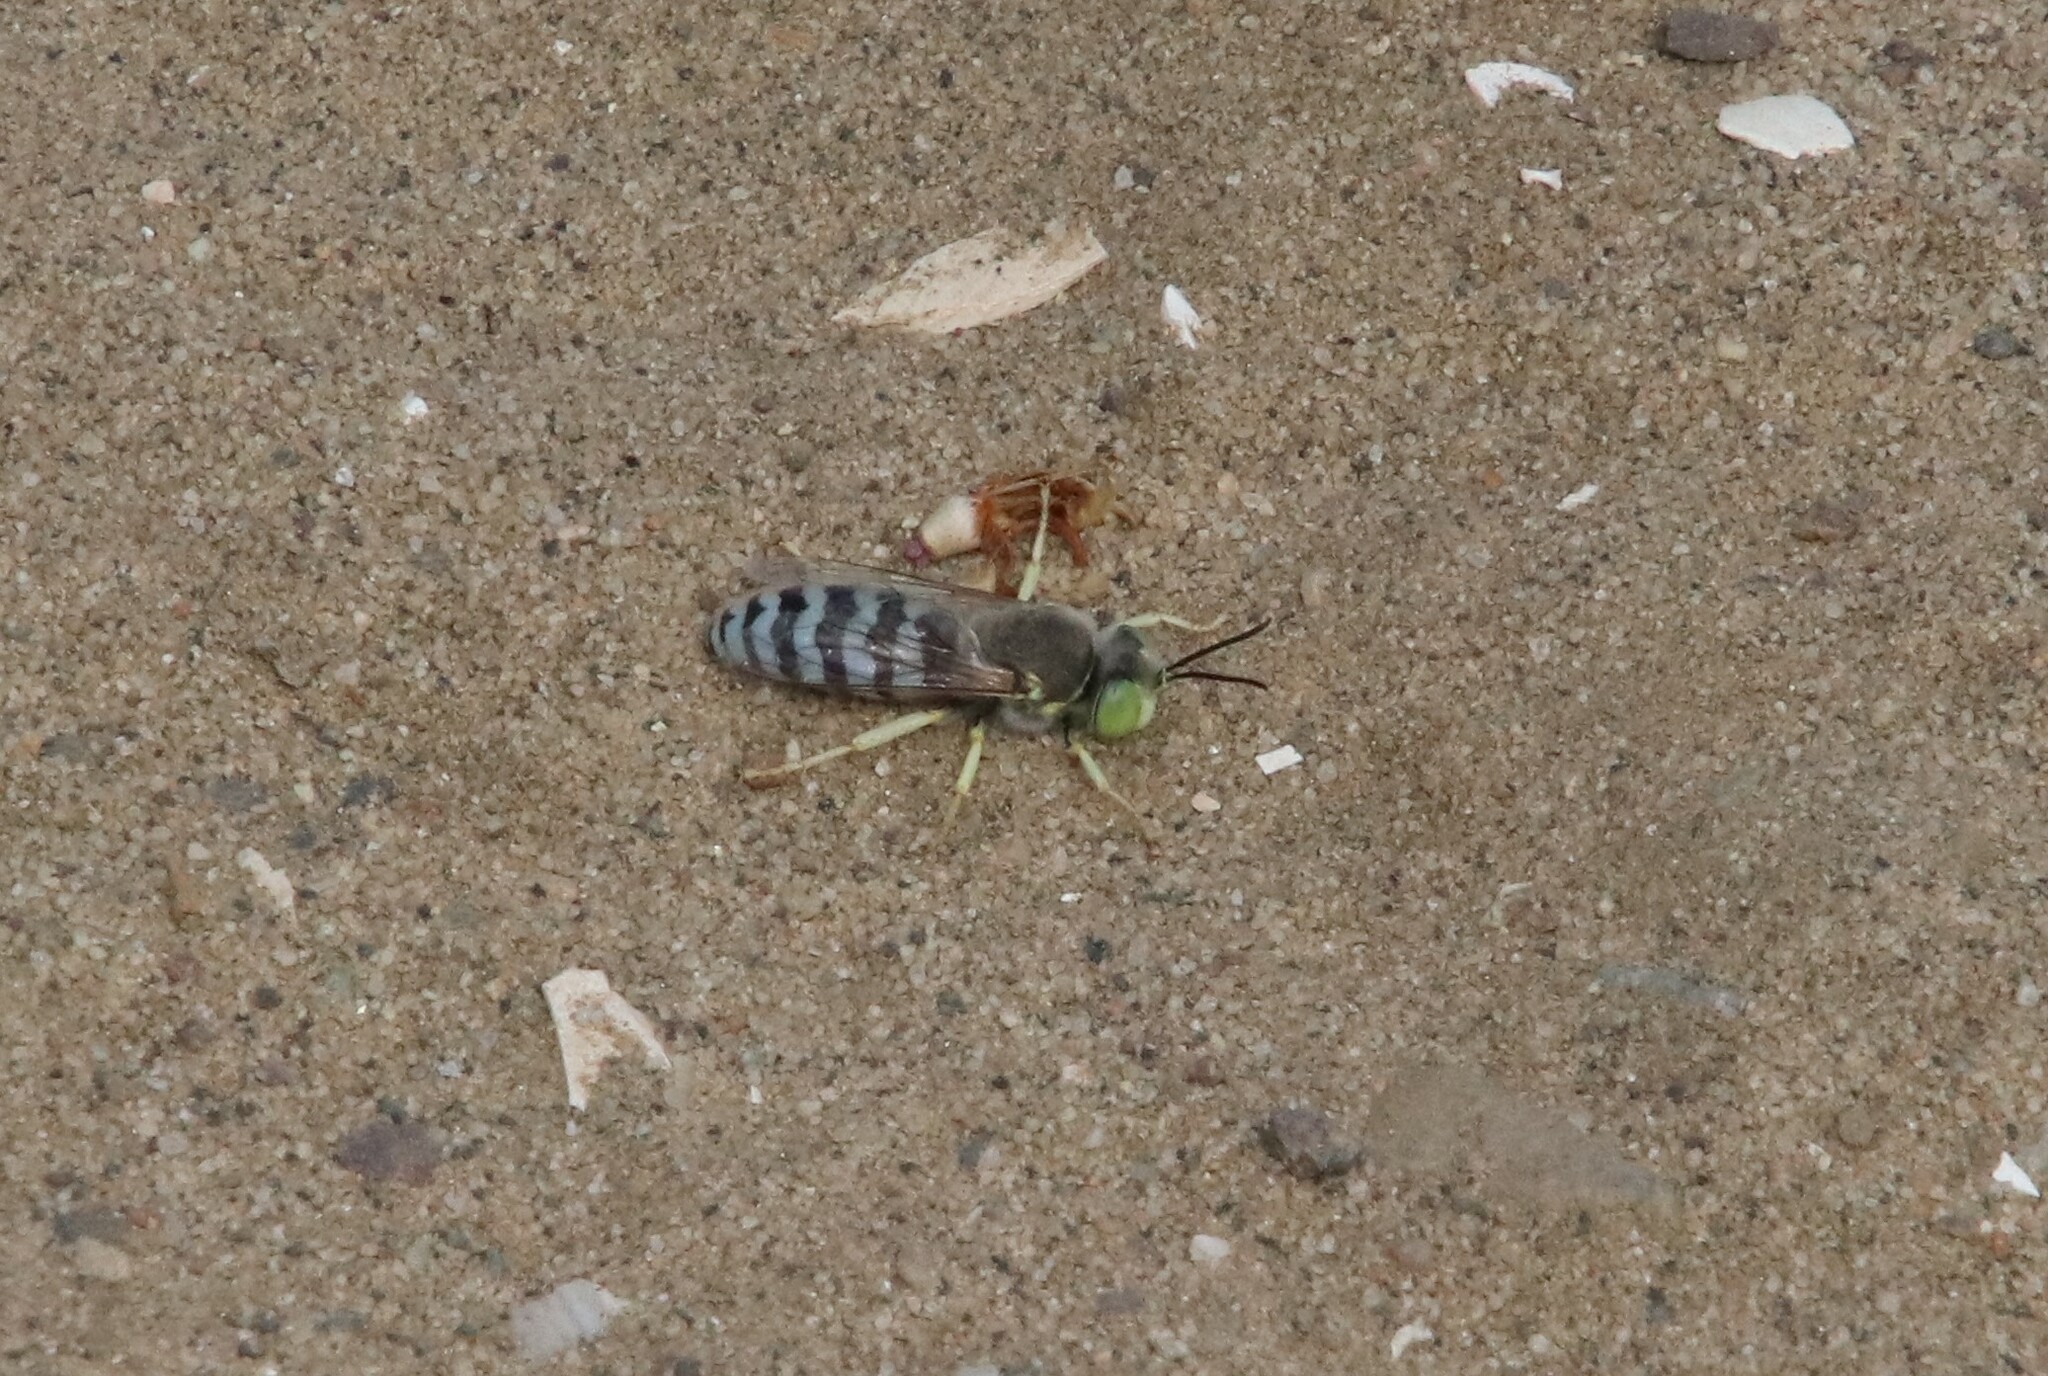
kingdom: Animalia
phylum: Arthropoda
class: Insecta
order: Hymenoptera
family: Crabronidae
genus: Bembix
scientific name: Bembix americana
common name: American sand wasp
